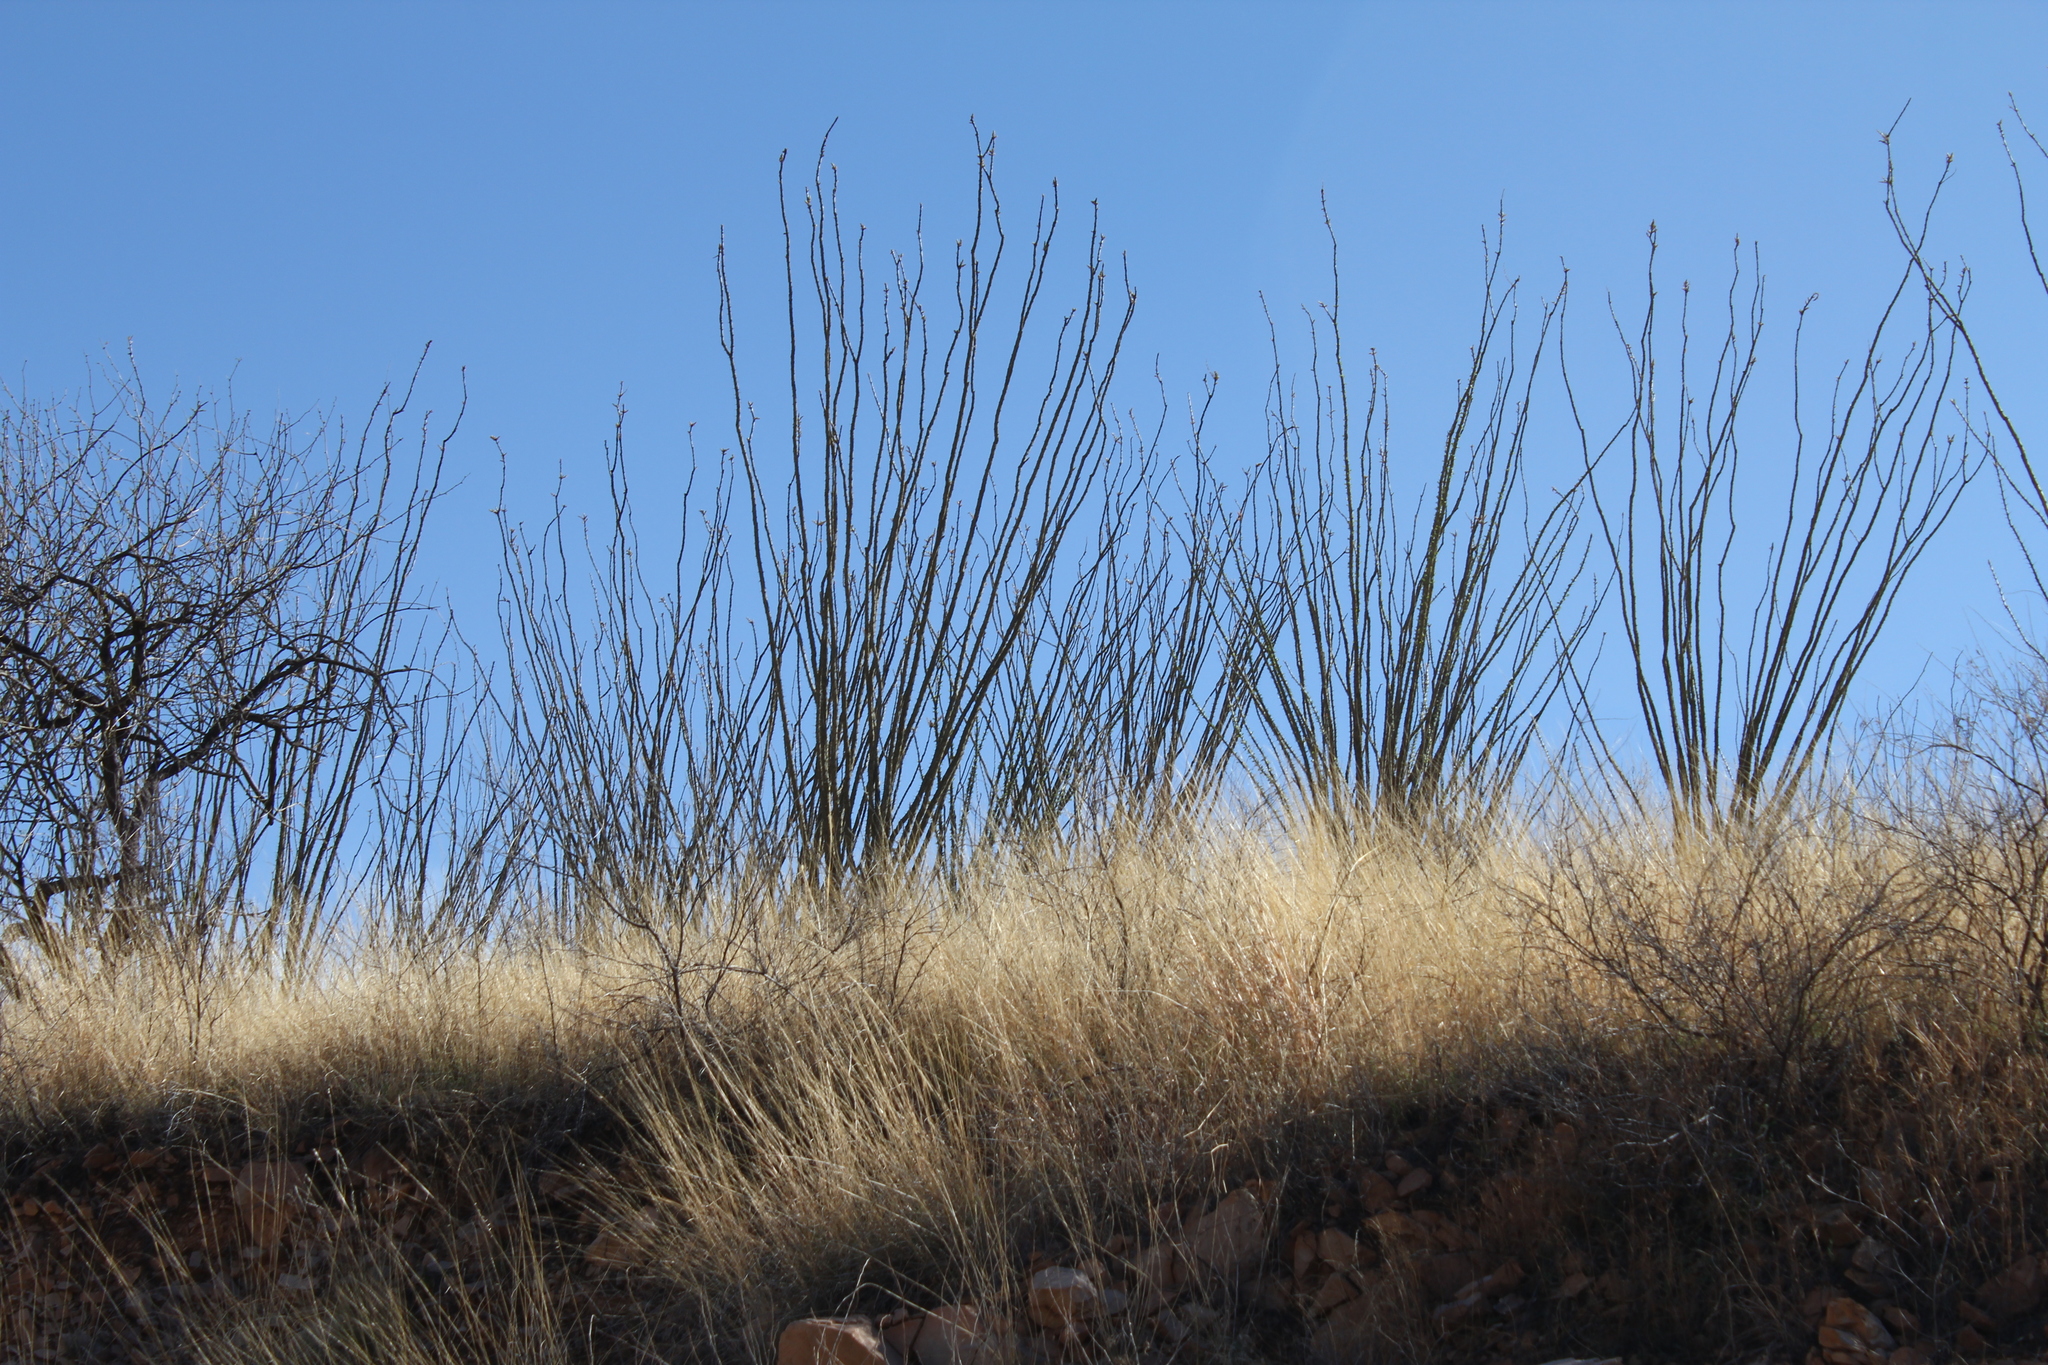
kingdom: Plantae
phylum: Tracheophyta
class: Magnoliopsida
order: Ericales
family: Fouquieriaceae
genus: Fouquieria
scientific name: Fouquieria splendens
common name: Vine-cactus
